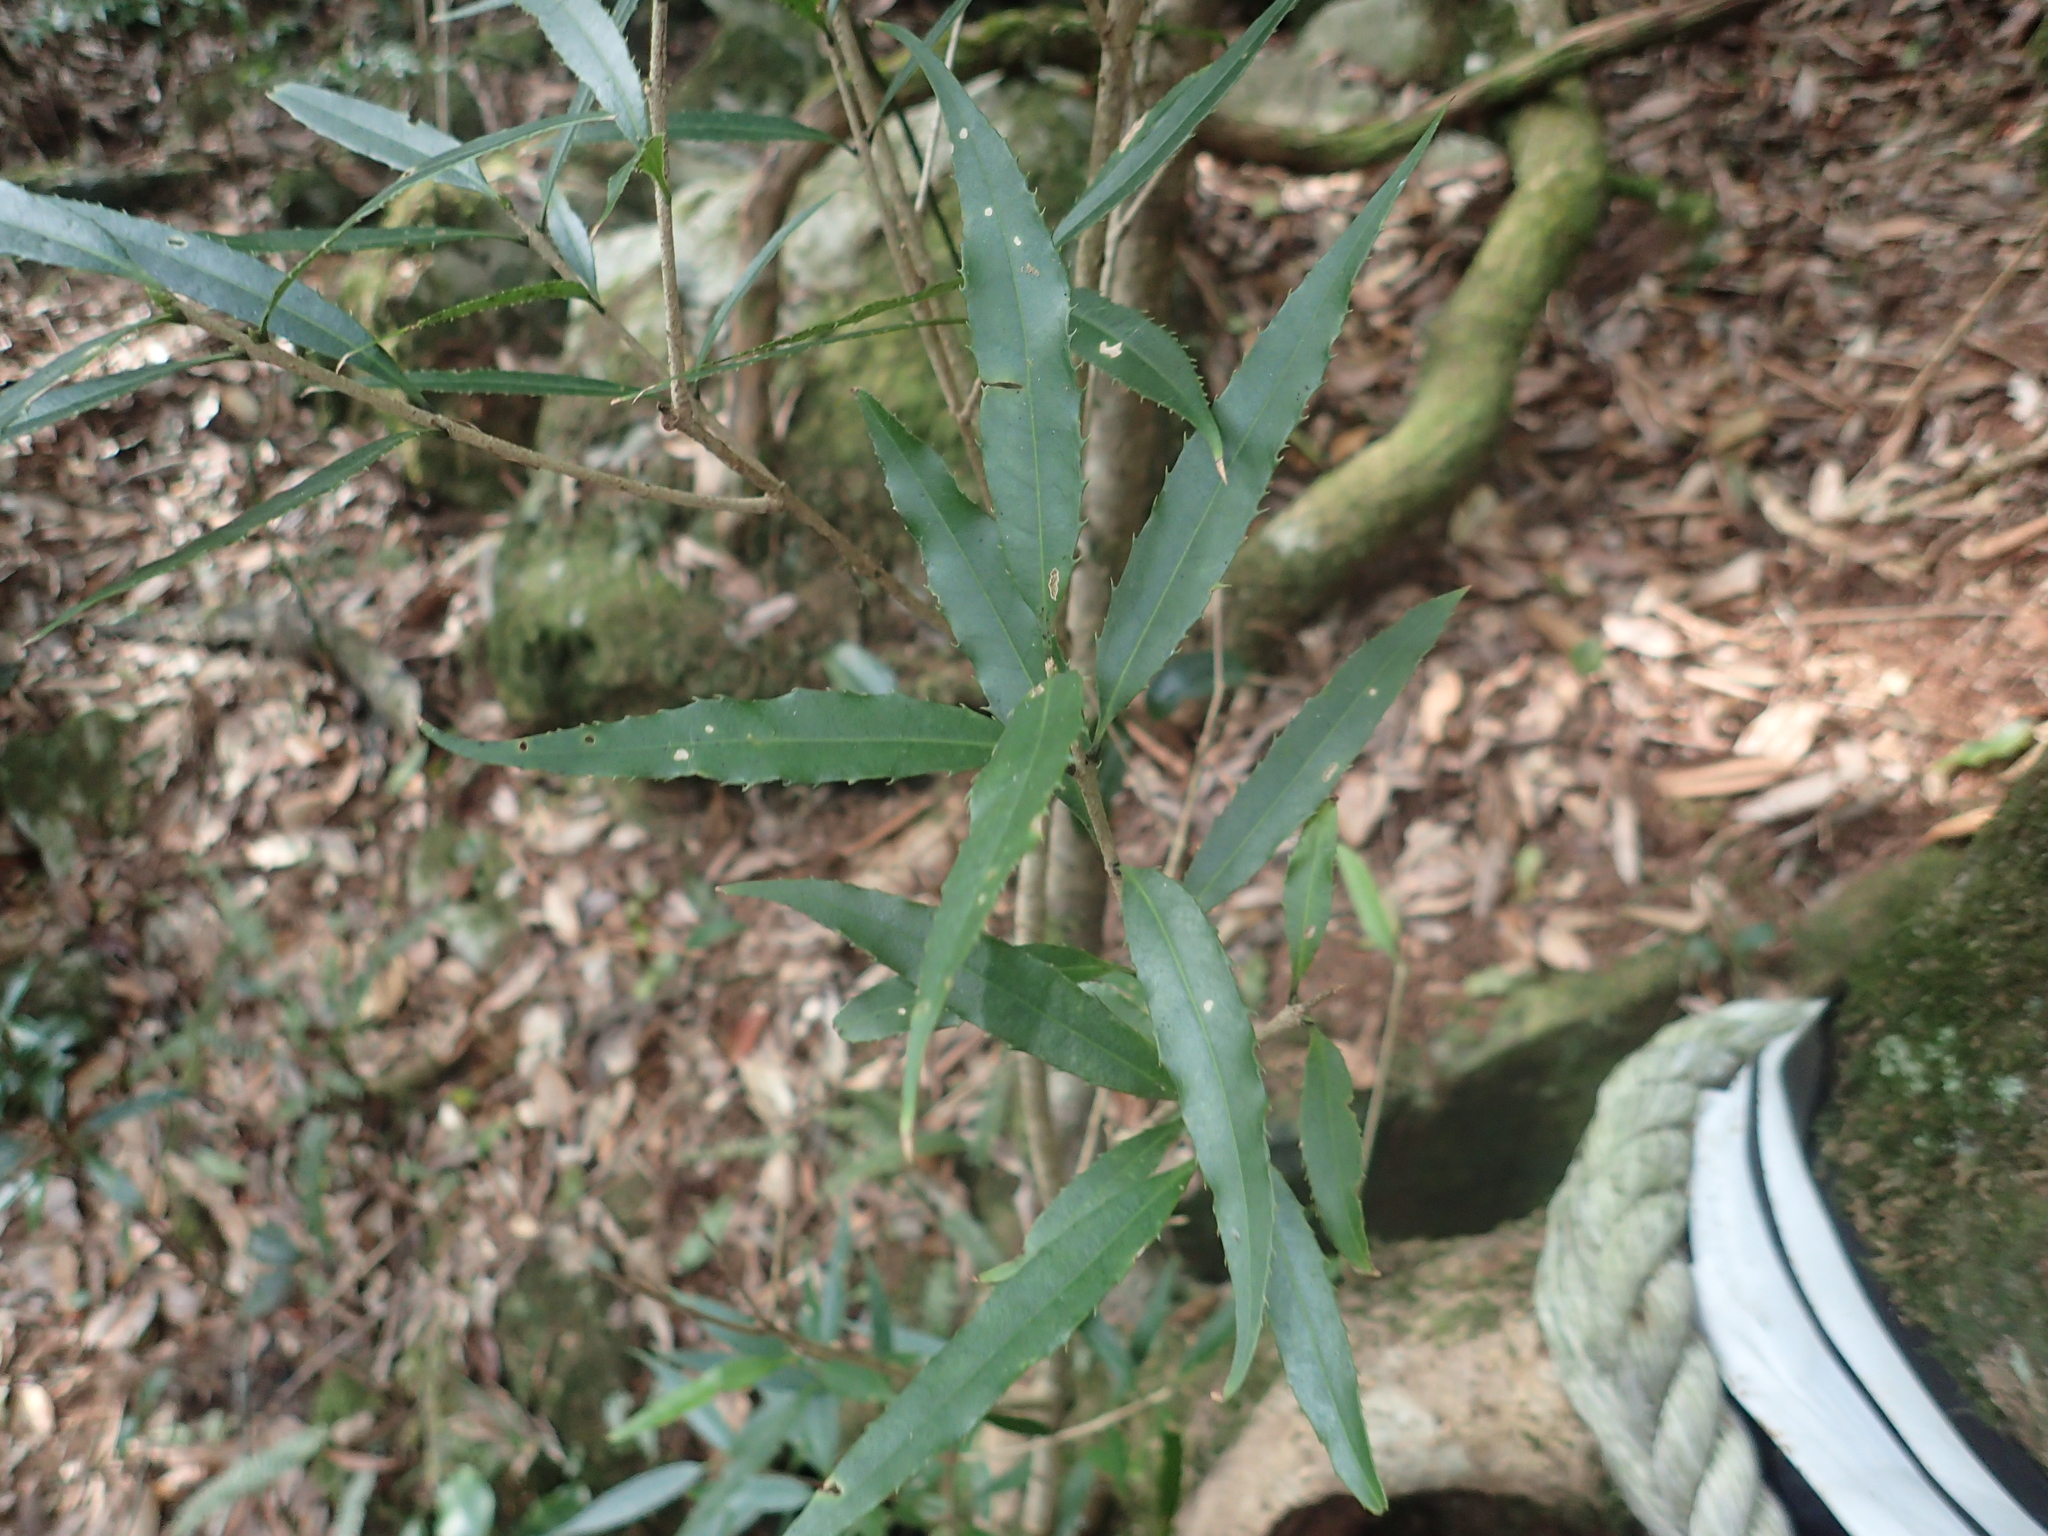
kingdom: Plantae
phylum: Tracheophyta
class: Magnoliopsida
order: Lamiales
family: Oleaceae
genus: Osmanthus
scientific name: Osmanthus lanceolatus
